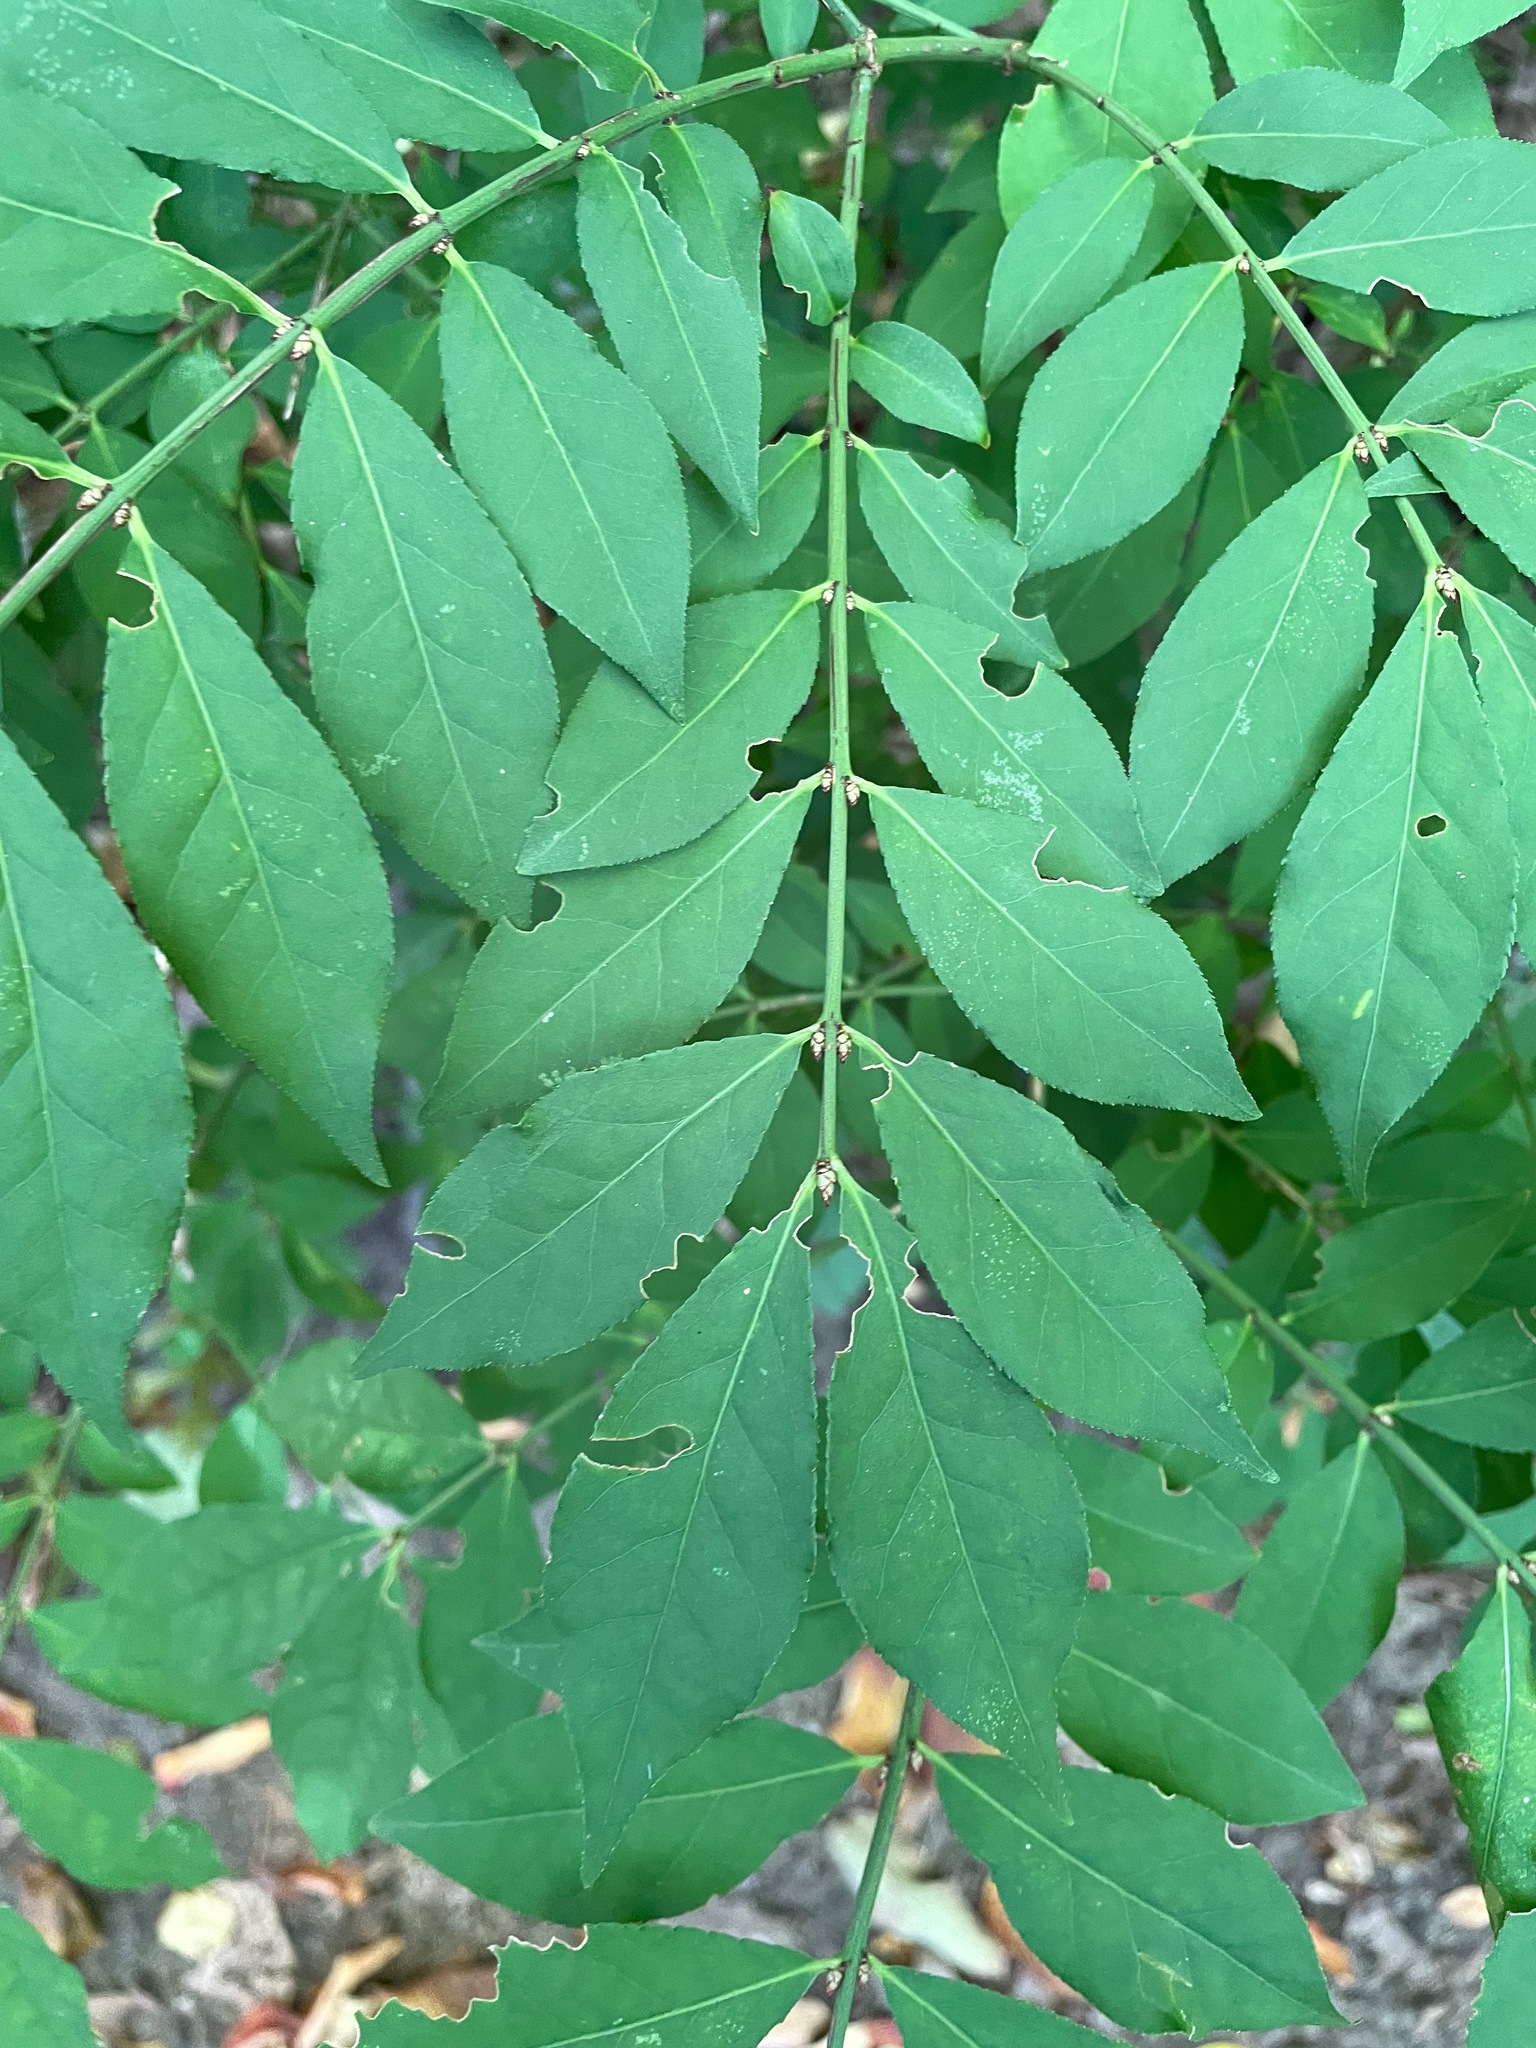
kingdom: Plantae
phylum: Tracheophyta
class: Magnoliopsida
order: Celastrales
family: Celastraceae
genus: Euonymus
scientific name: Euonymus alatus
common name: Winged euonymus
